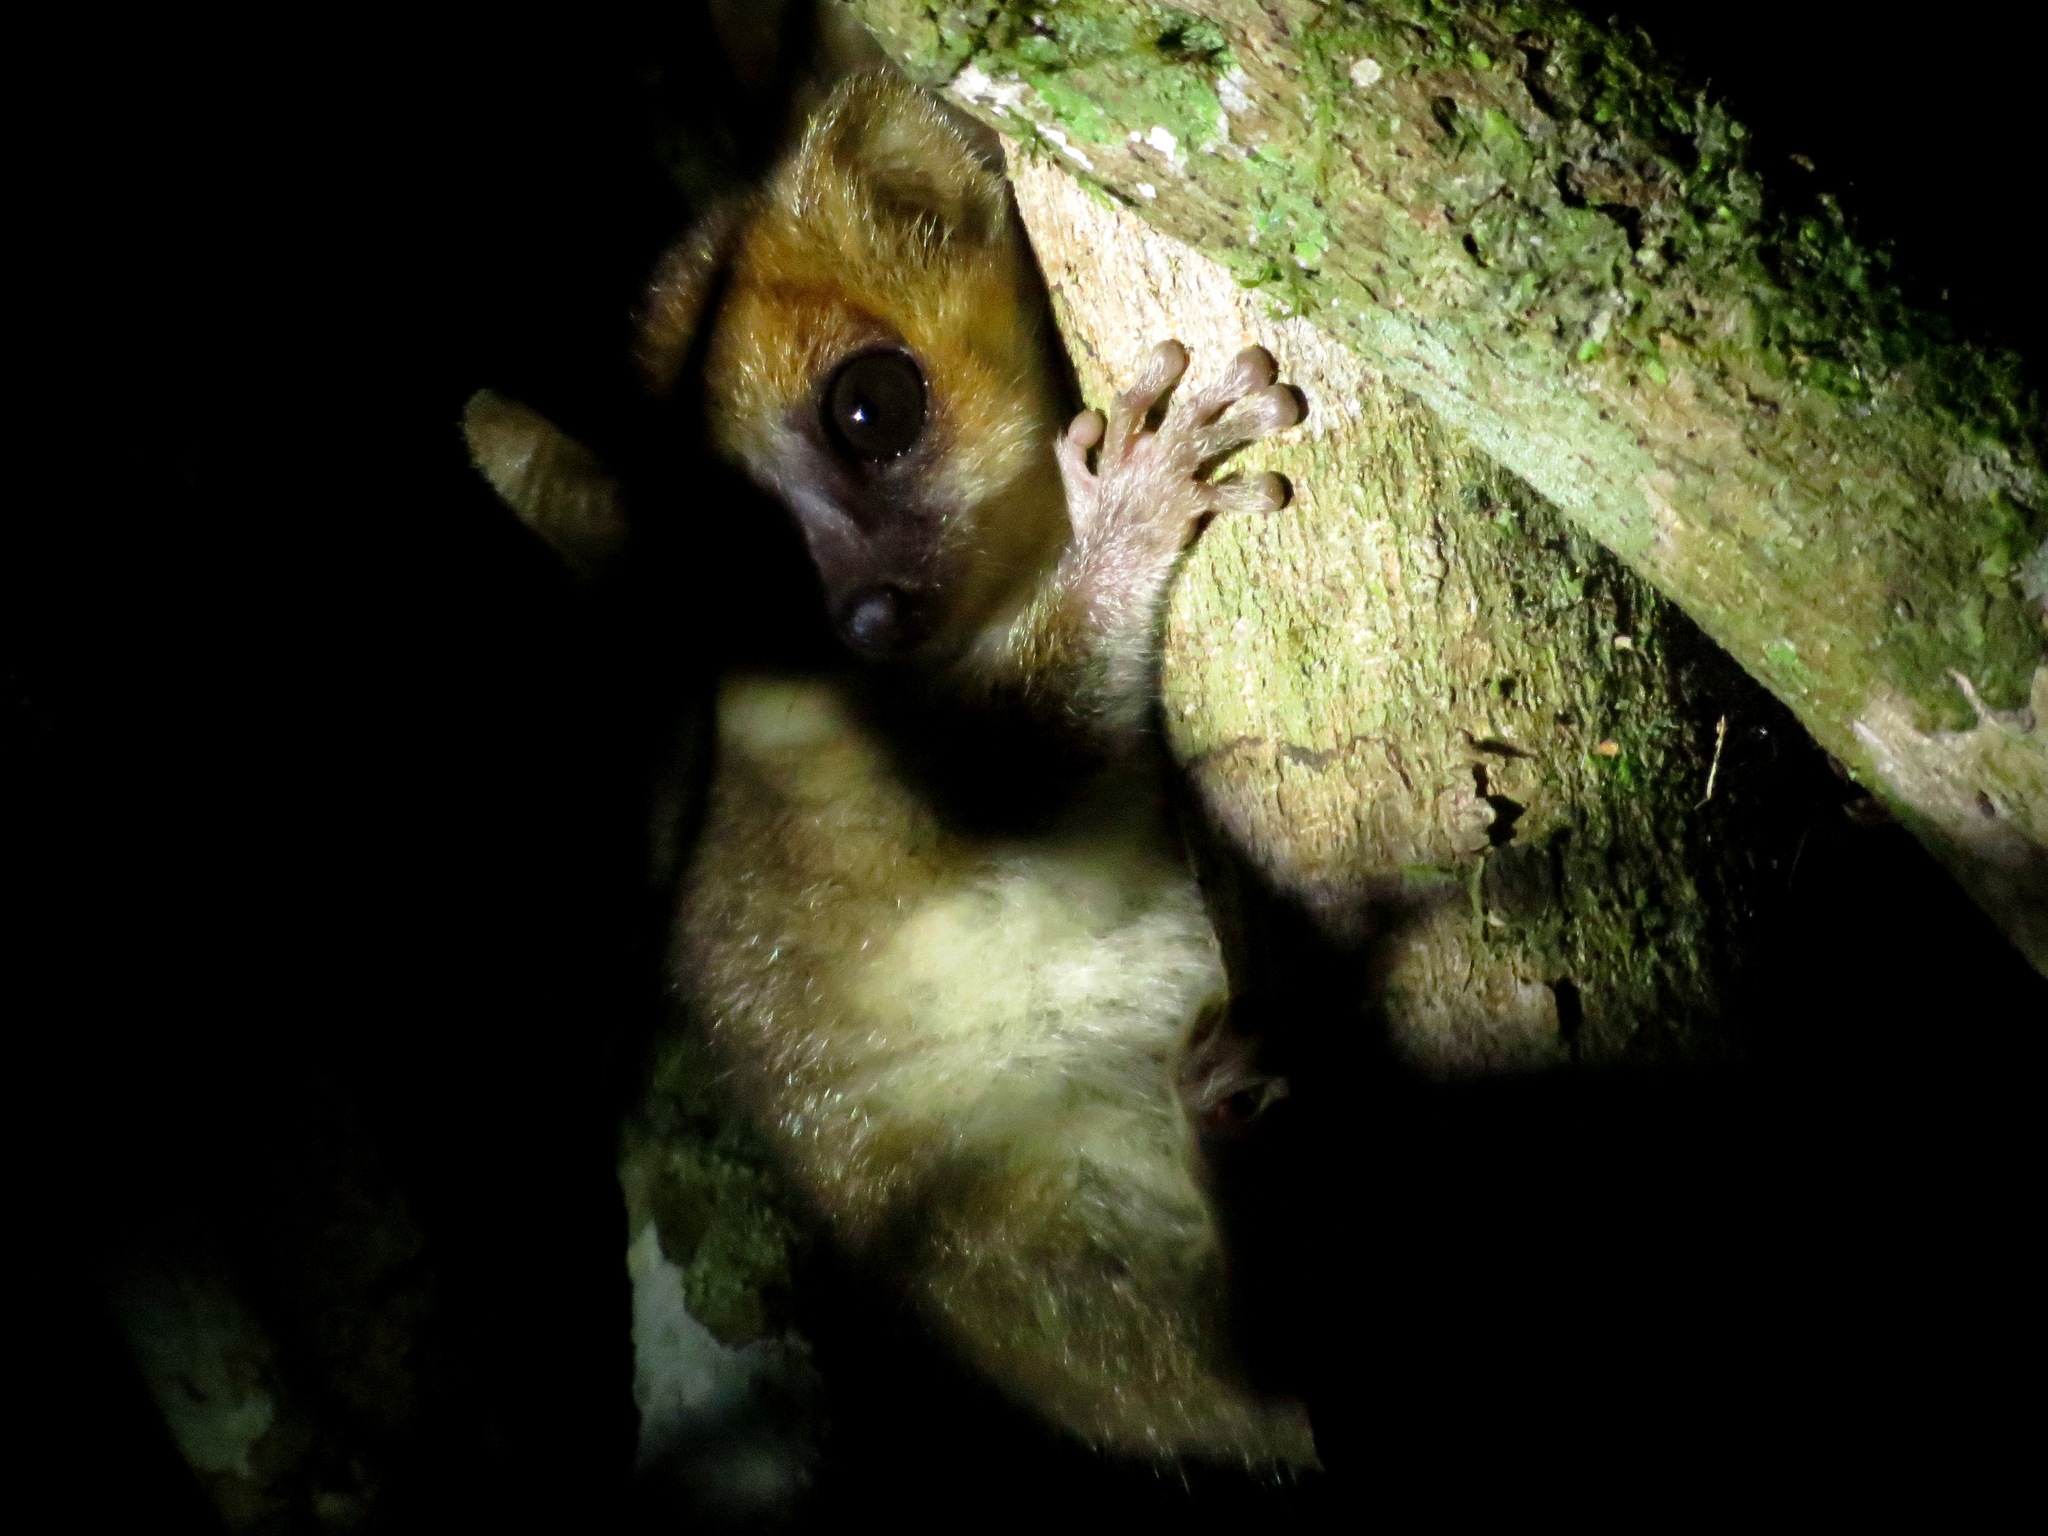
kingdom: Animalia
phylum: Chordata
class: Mammalia
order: Primates
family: Cheirogaleidae
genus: Microcebus
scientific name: Microcebus lehilahytsara
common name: Goodman's mouse lemur
